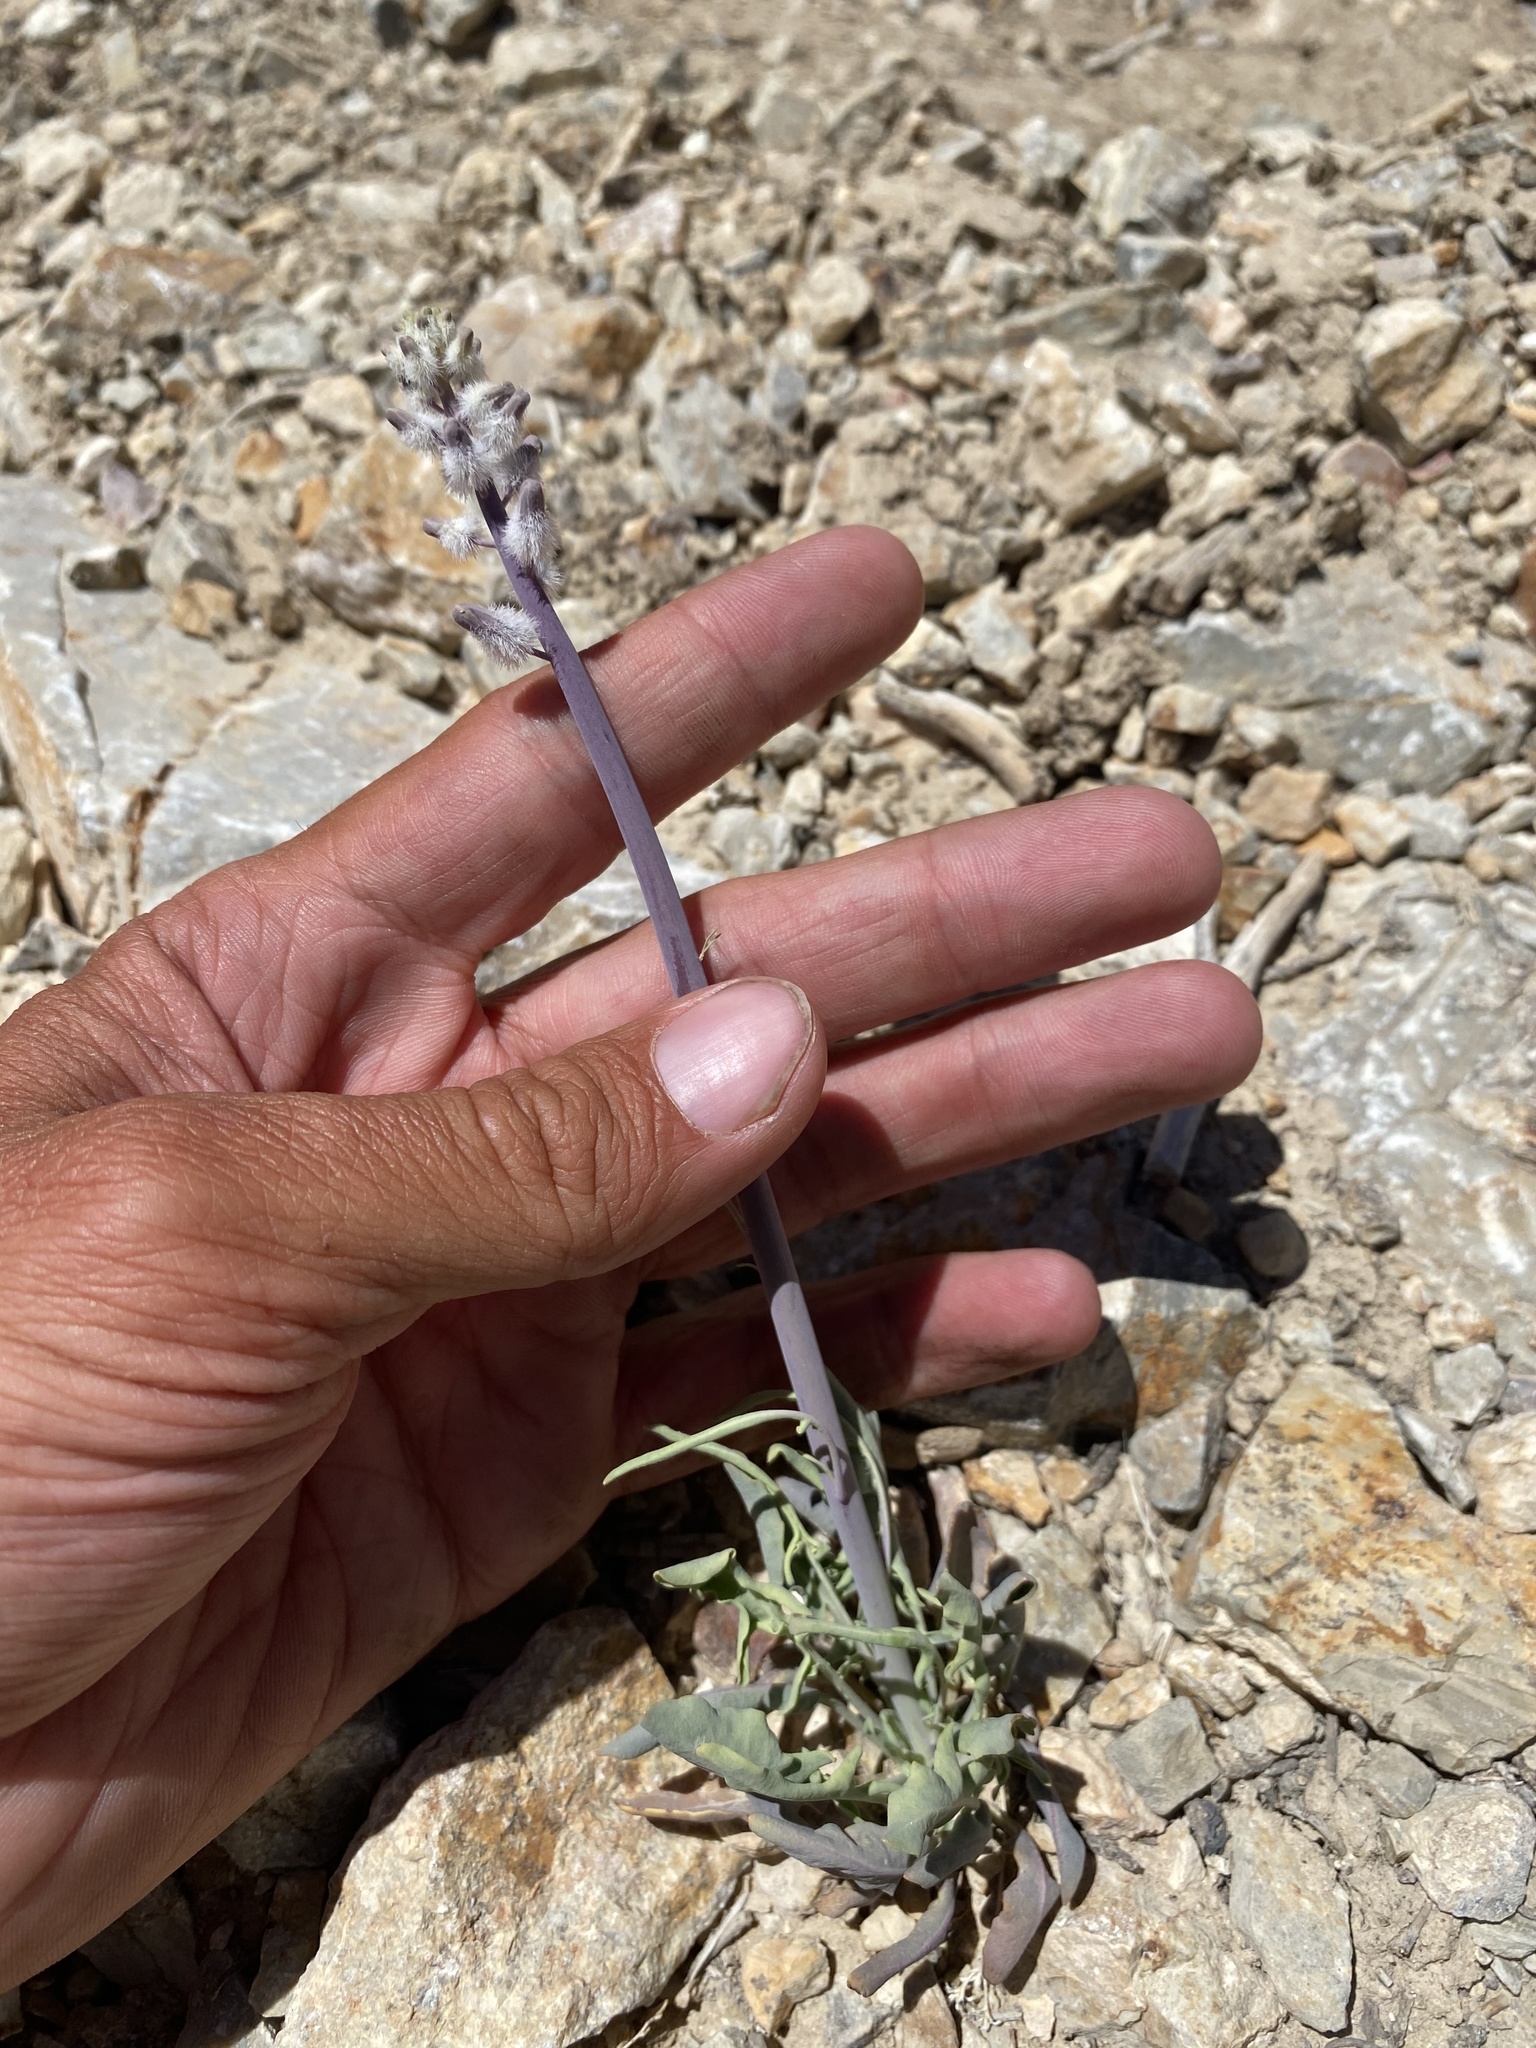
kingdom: Plantae
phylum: Tracheophyta
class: Magnoliopsida
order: Brassicales
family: Brassicaceae
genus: Streptanthus
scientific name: Streptanthus crassicaulis
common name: Thick-stem wild cabbage
